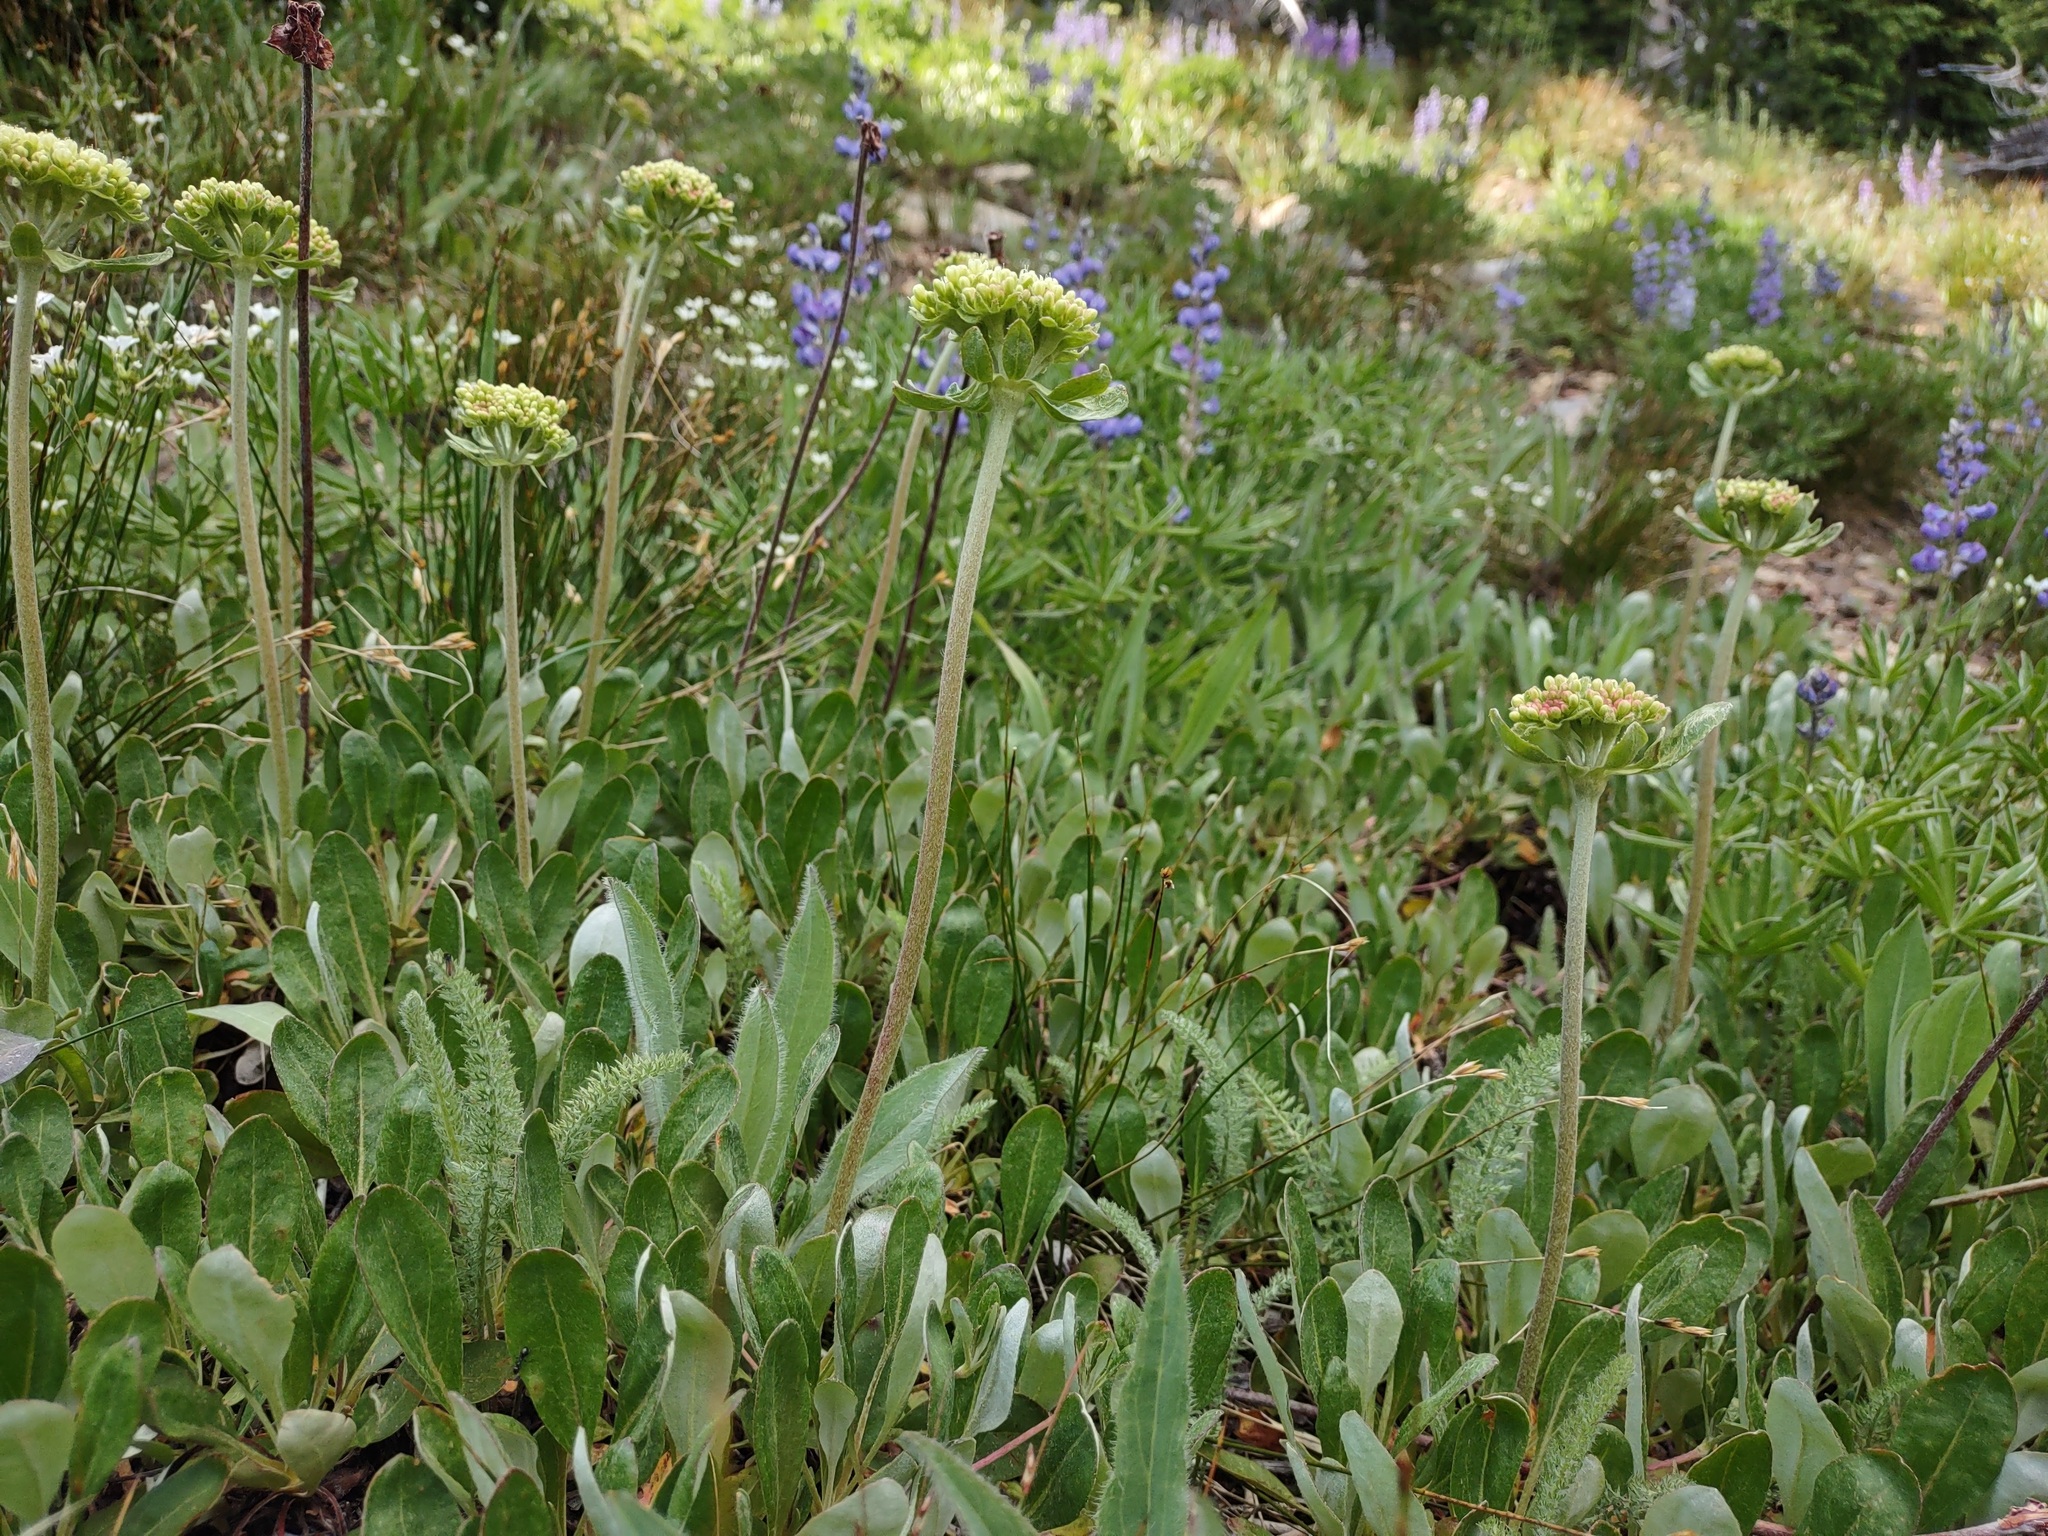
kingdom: Plantae
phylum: Tracheophyta
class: Magnoliopsida
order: Caryophyllales
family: Polygonaceae
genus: Eriogonum
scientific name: Eriogonum umbellatum
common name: Sulfur-buckwheat
